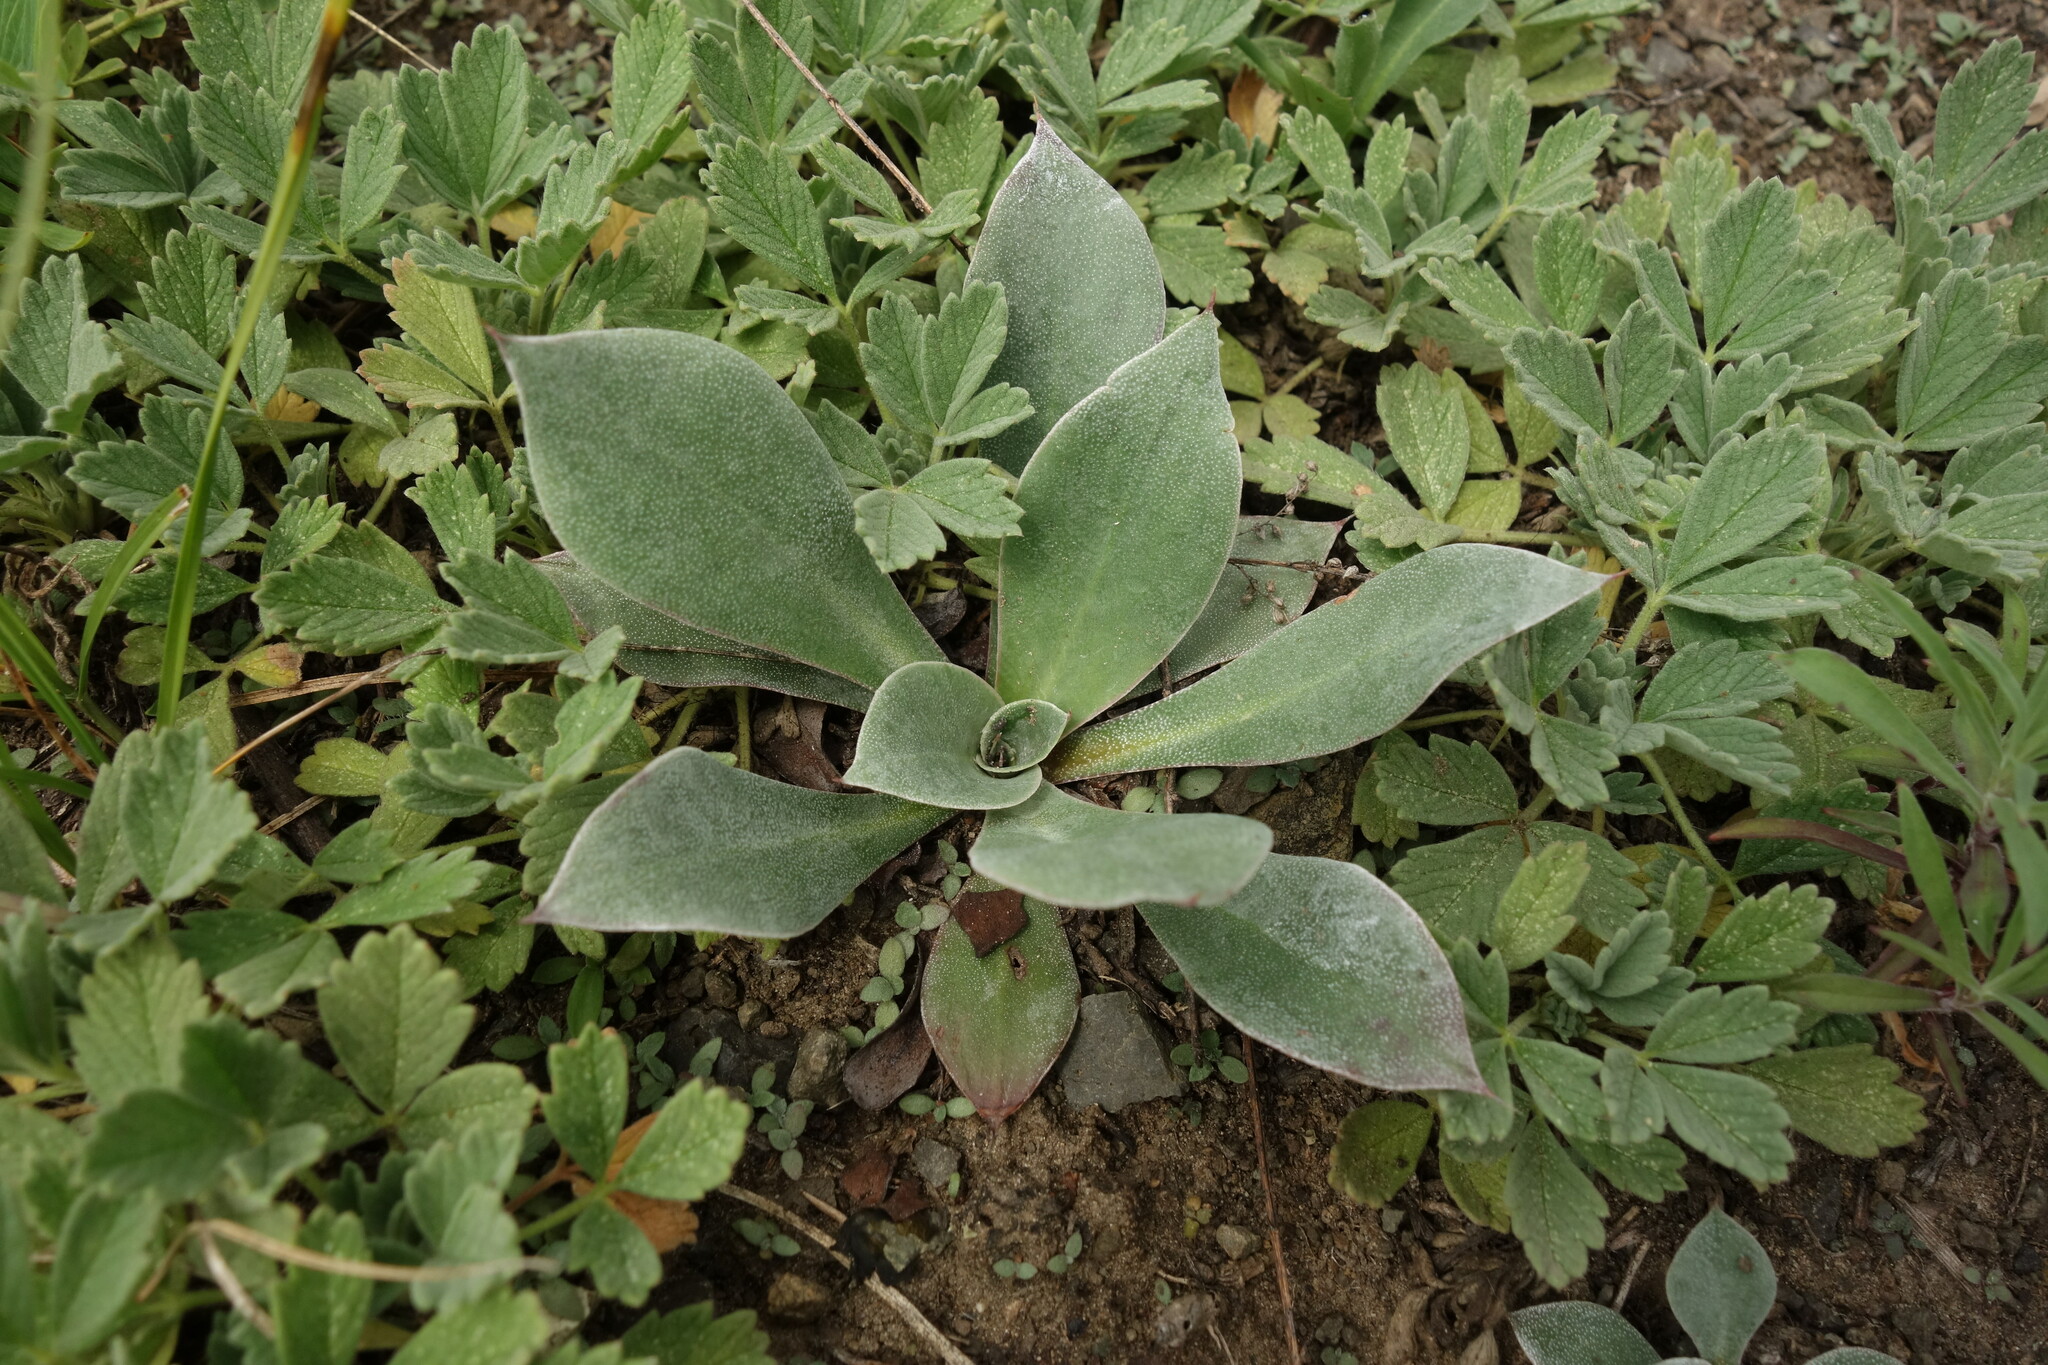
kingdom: Plantae
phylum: Tracheophyta
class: Magnoliopsida
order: Caryophyllales
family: Plumbaginaceae
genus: Goniolimon
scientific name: Goniolimon speciosum
